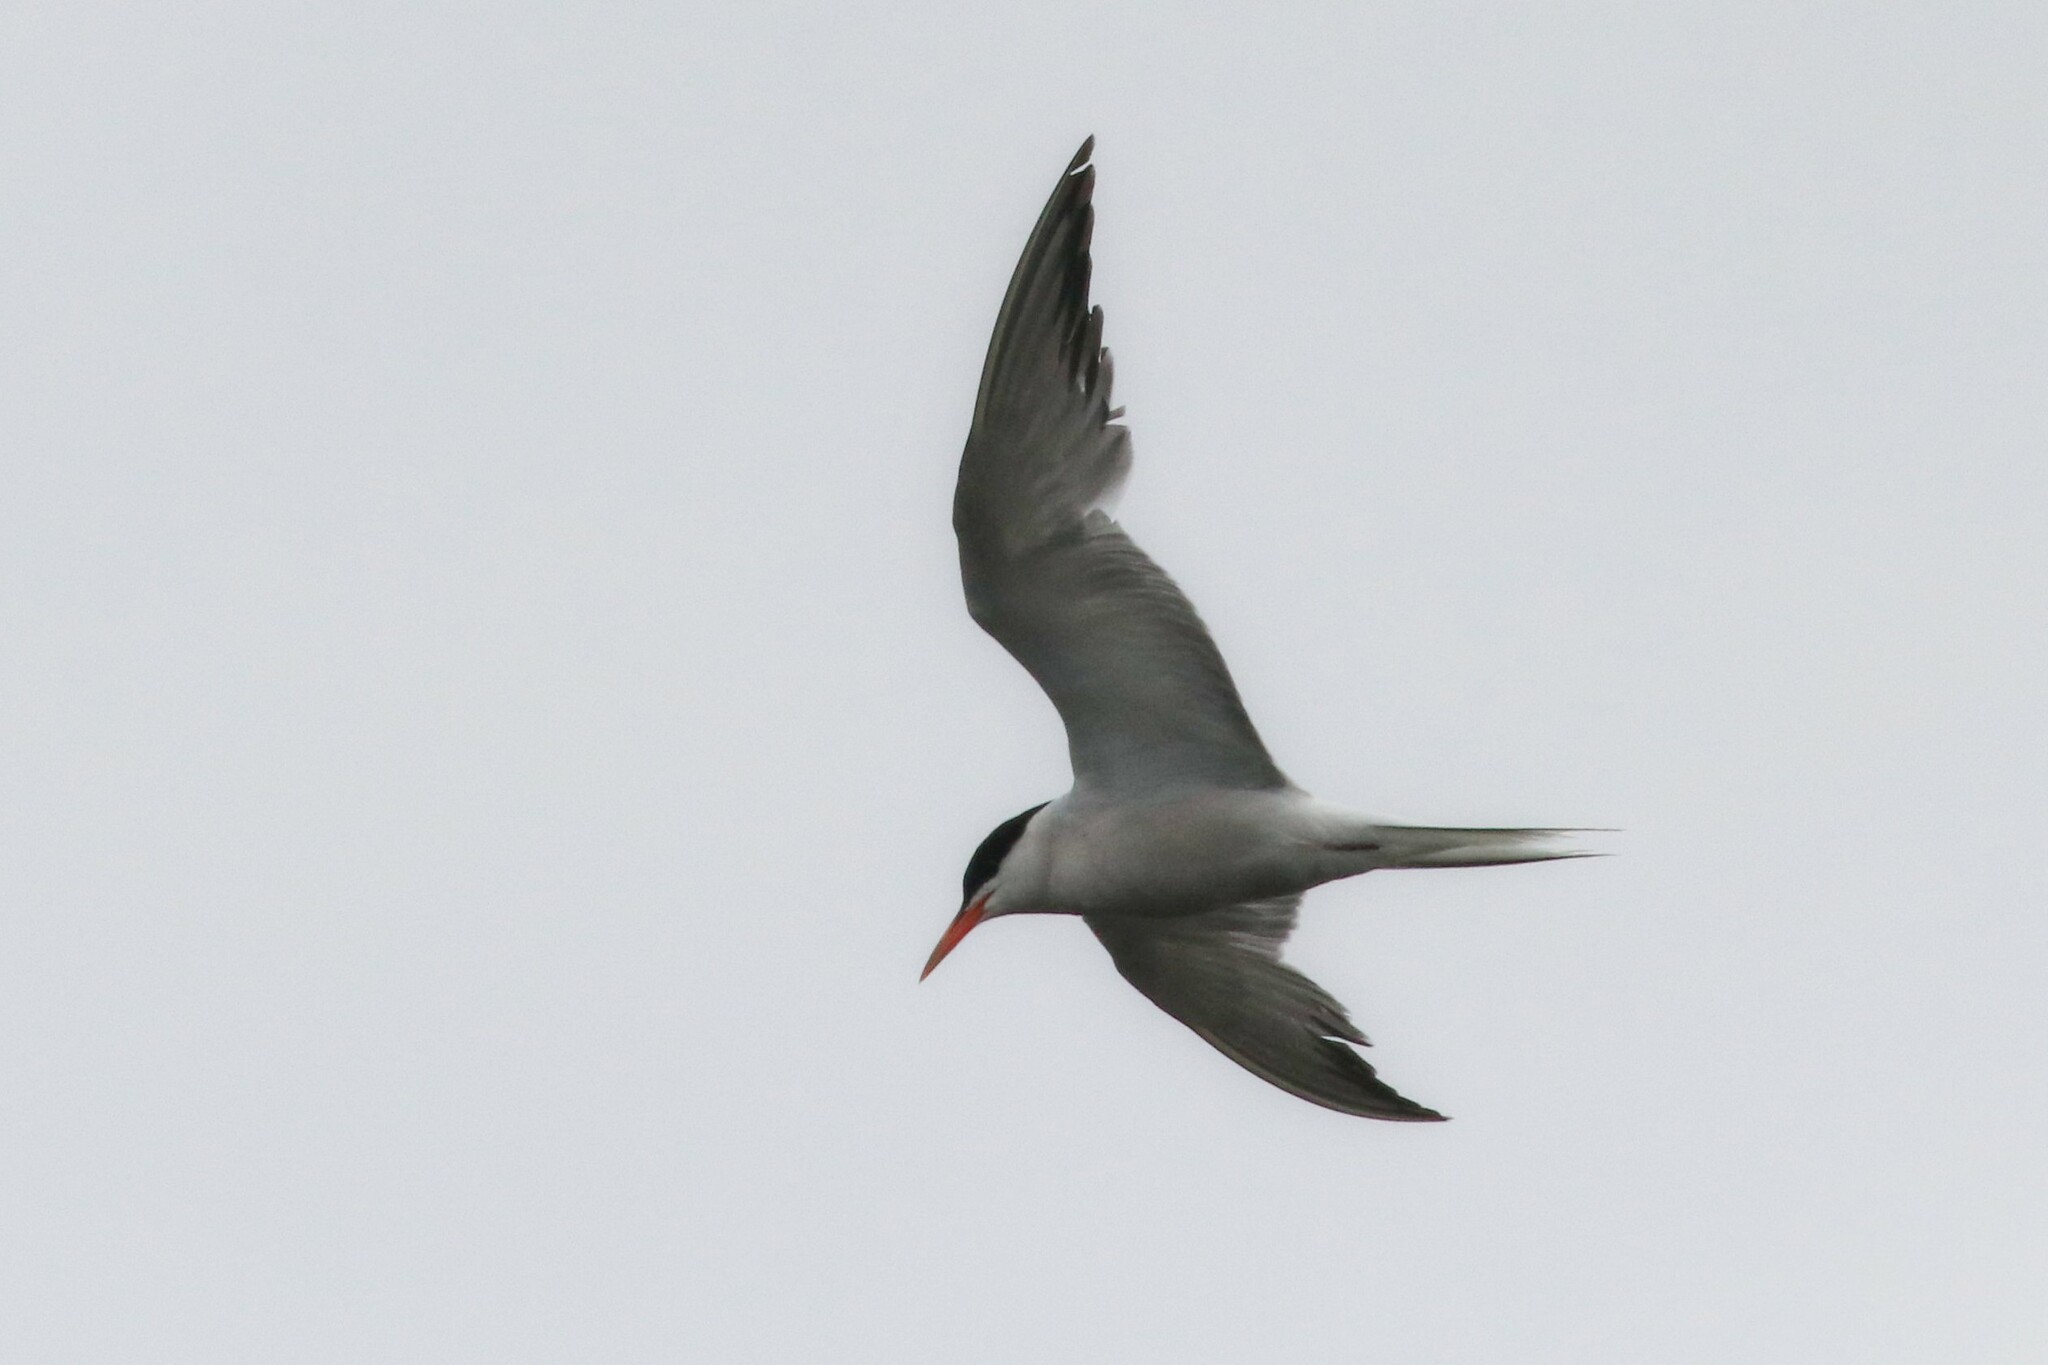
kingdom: Animalia
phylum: Chordata
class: Aves
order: Charadriiformes
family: Laridae
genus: Sterna
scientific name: Sterna hirundo
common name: Common tern
